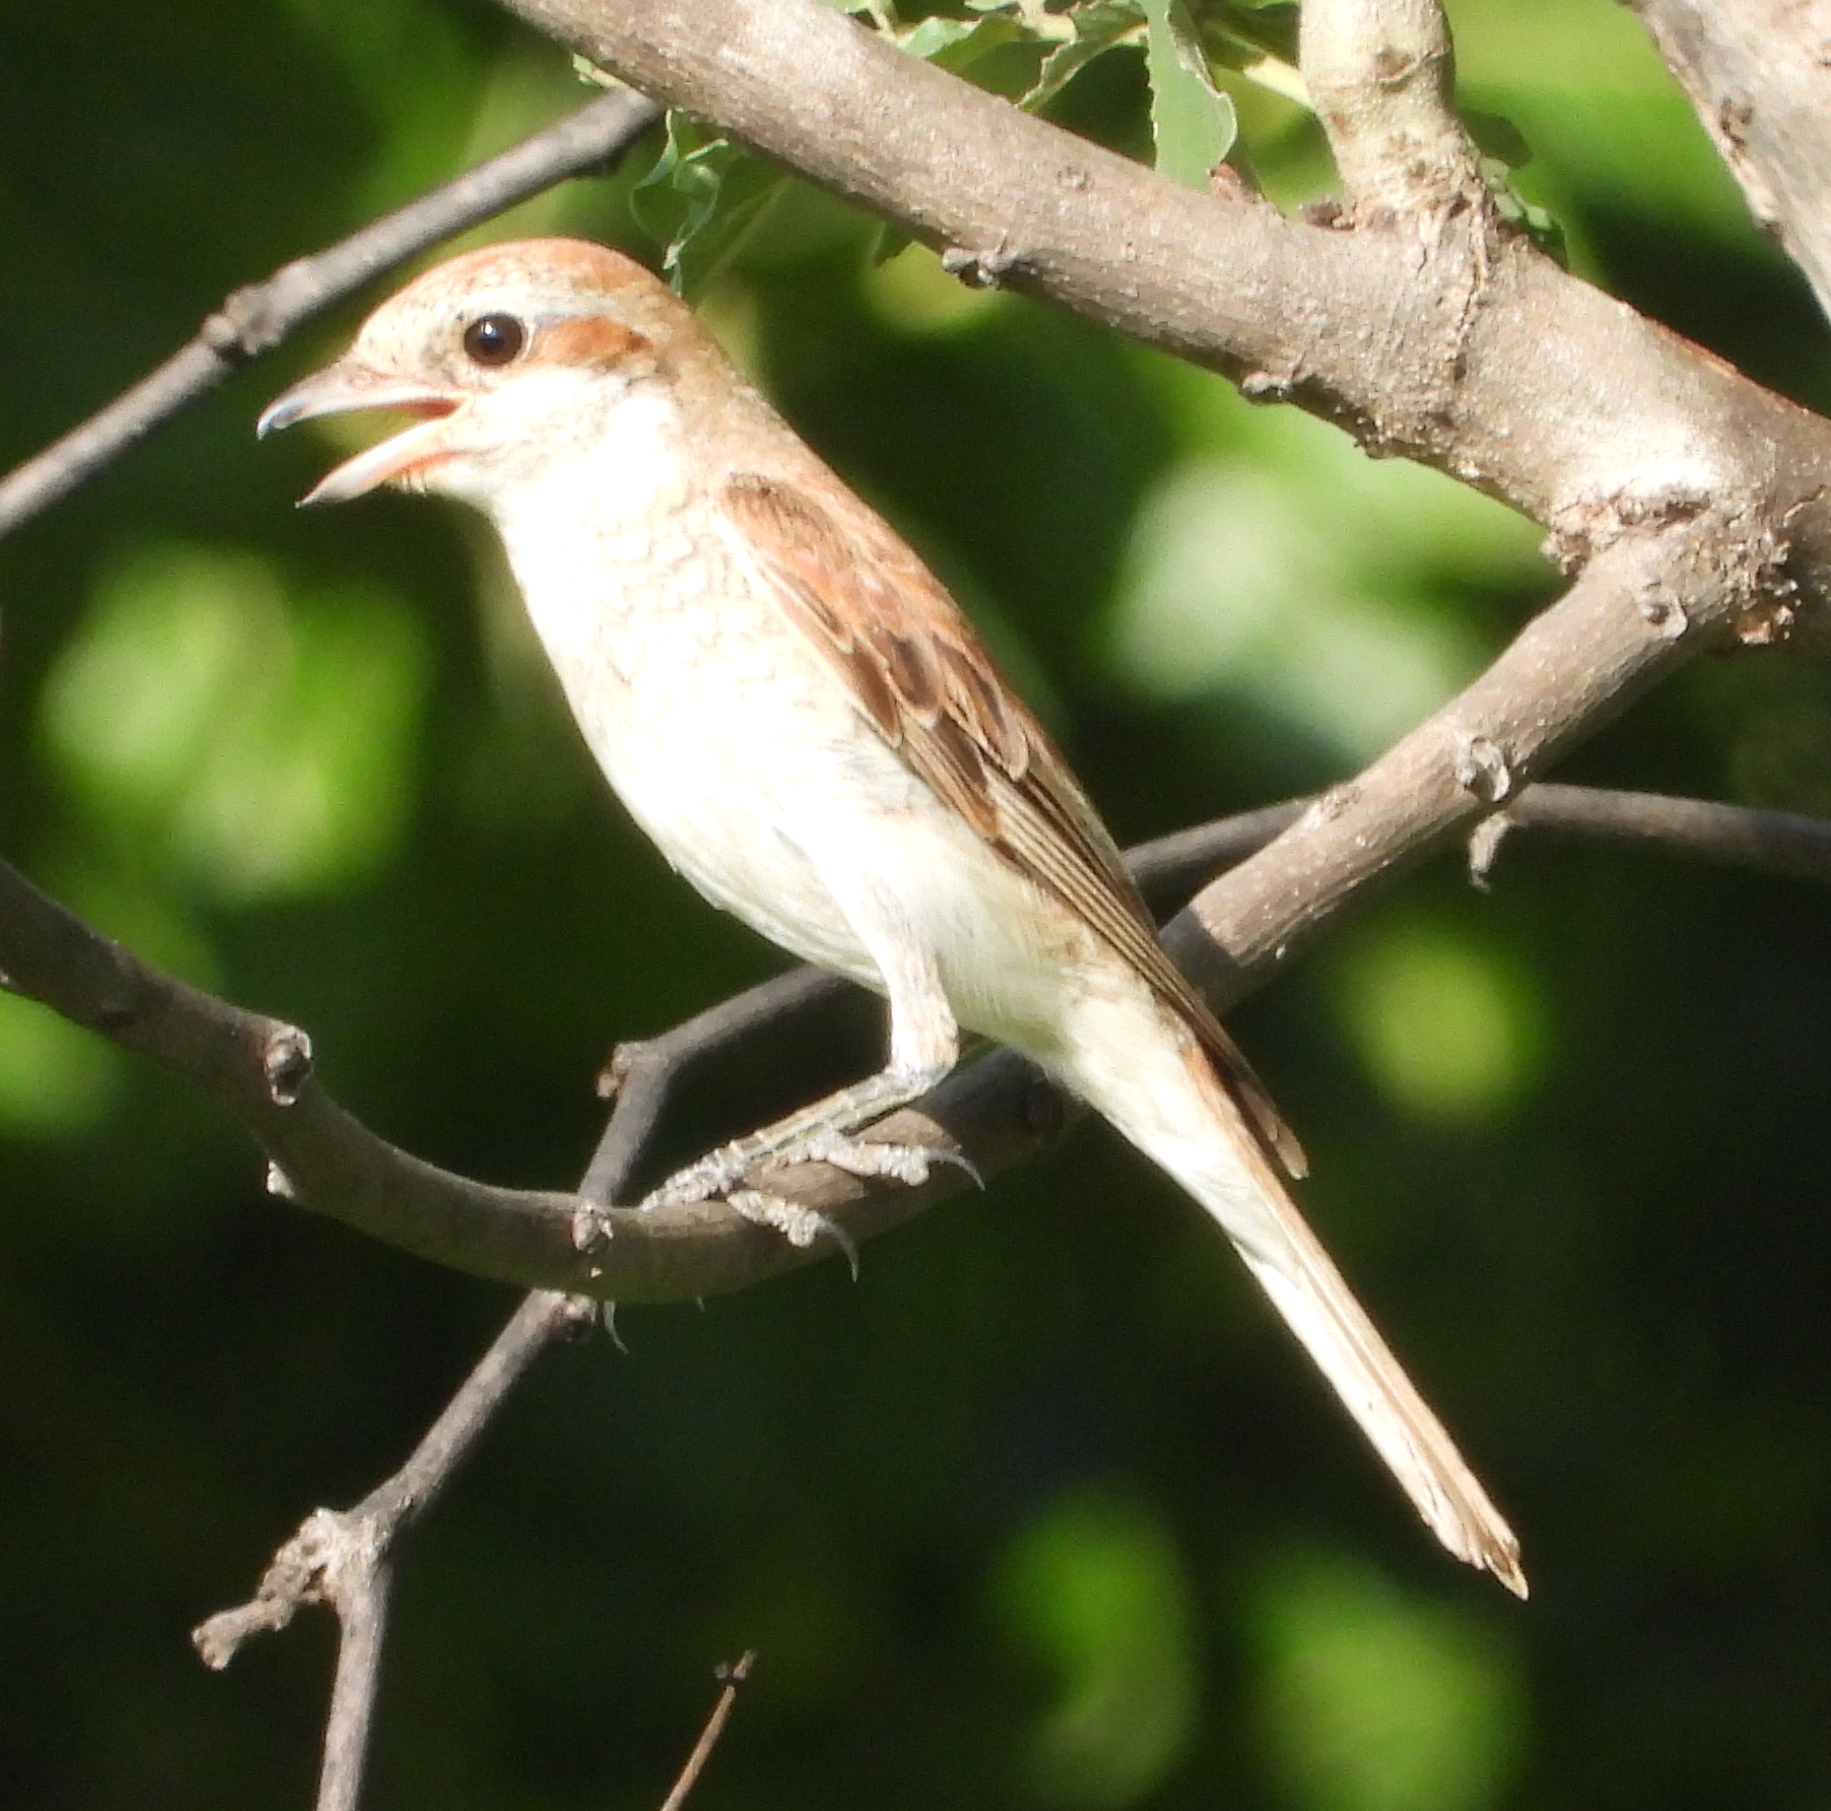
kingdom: Animalia
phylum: Chordata
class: Aves
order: Passeriformes
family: Laniidae
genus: Lanius
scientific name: Lanius collurio
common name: Red-backed shrike
